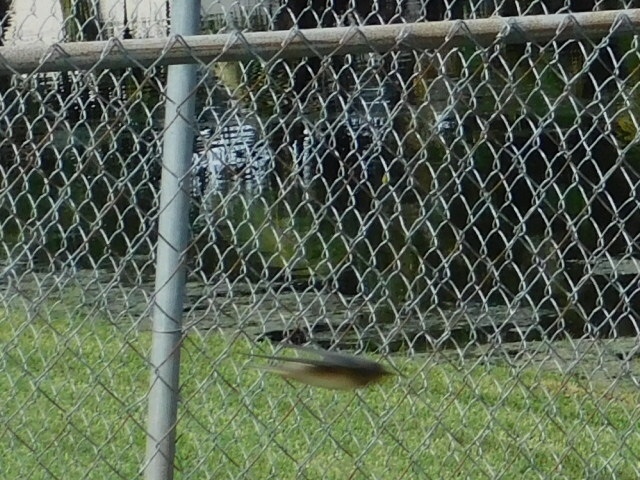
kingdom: Animalia
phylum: Chordata
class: Aves
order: Passeriformes
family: Hirundinidae
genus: Hirundo
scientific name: Hirundo rustica
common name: Barn swallow
